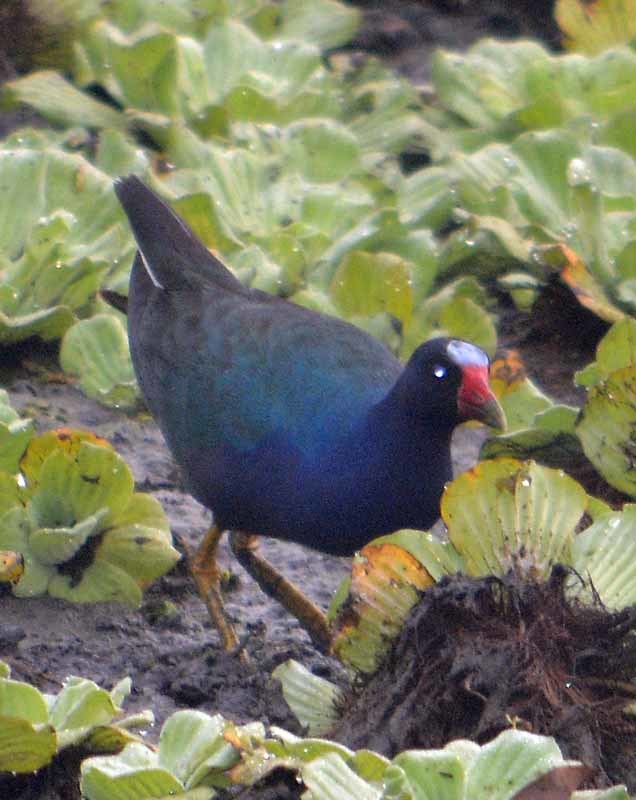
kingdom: Animalia
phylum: Chordata
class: Aves
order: Gruiformes
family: Rallidae
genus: Porphyrio
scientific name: Porphyrio martinica
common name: Purple gallinule
